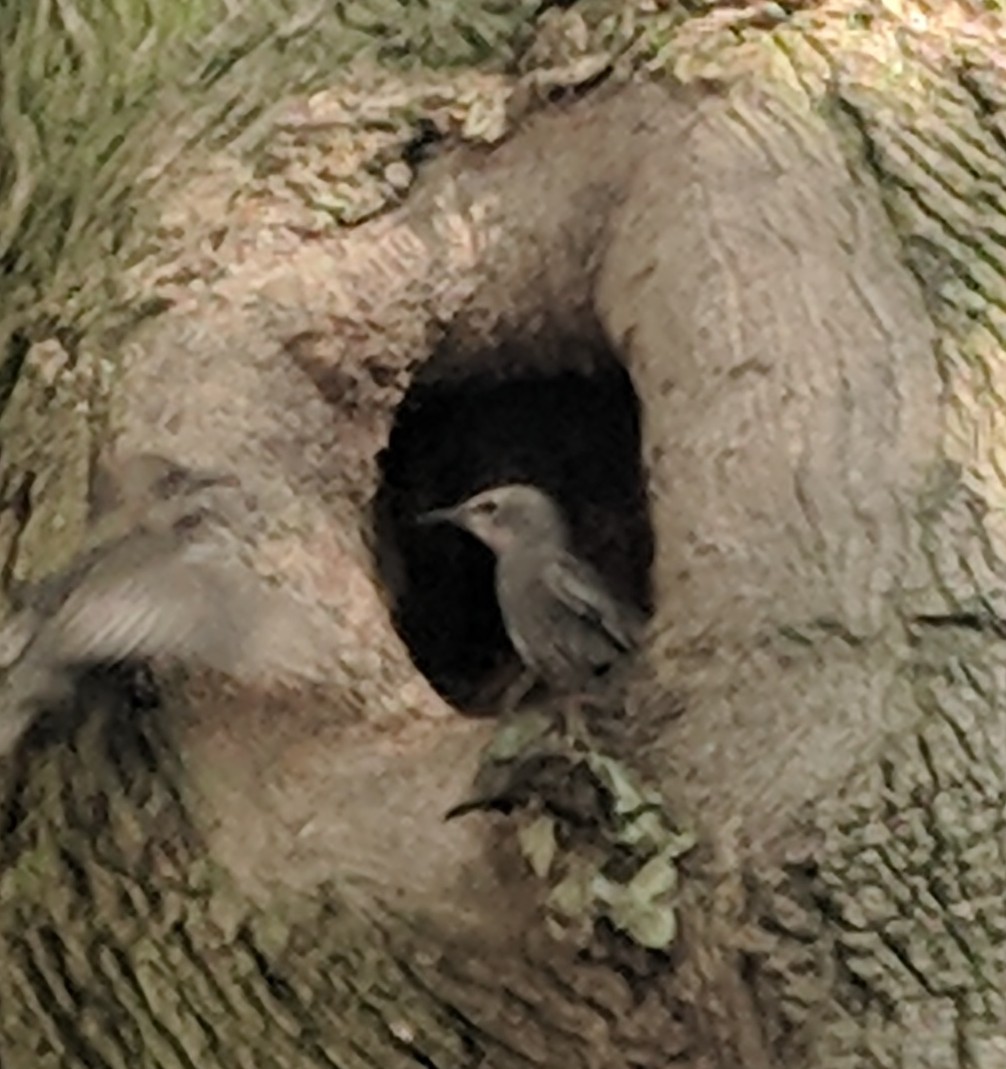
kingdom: Animalia
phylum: Chordata
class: Aves
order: Passeriformes
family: Sturnidae
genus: Sturnus
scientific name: Sturnus vulgaris
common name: Common starling
